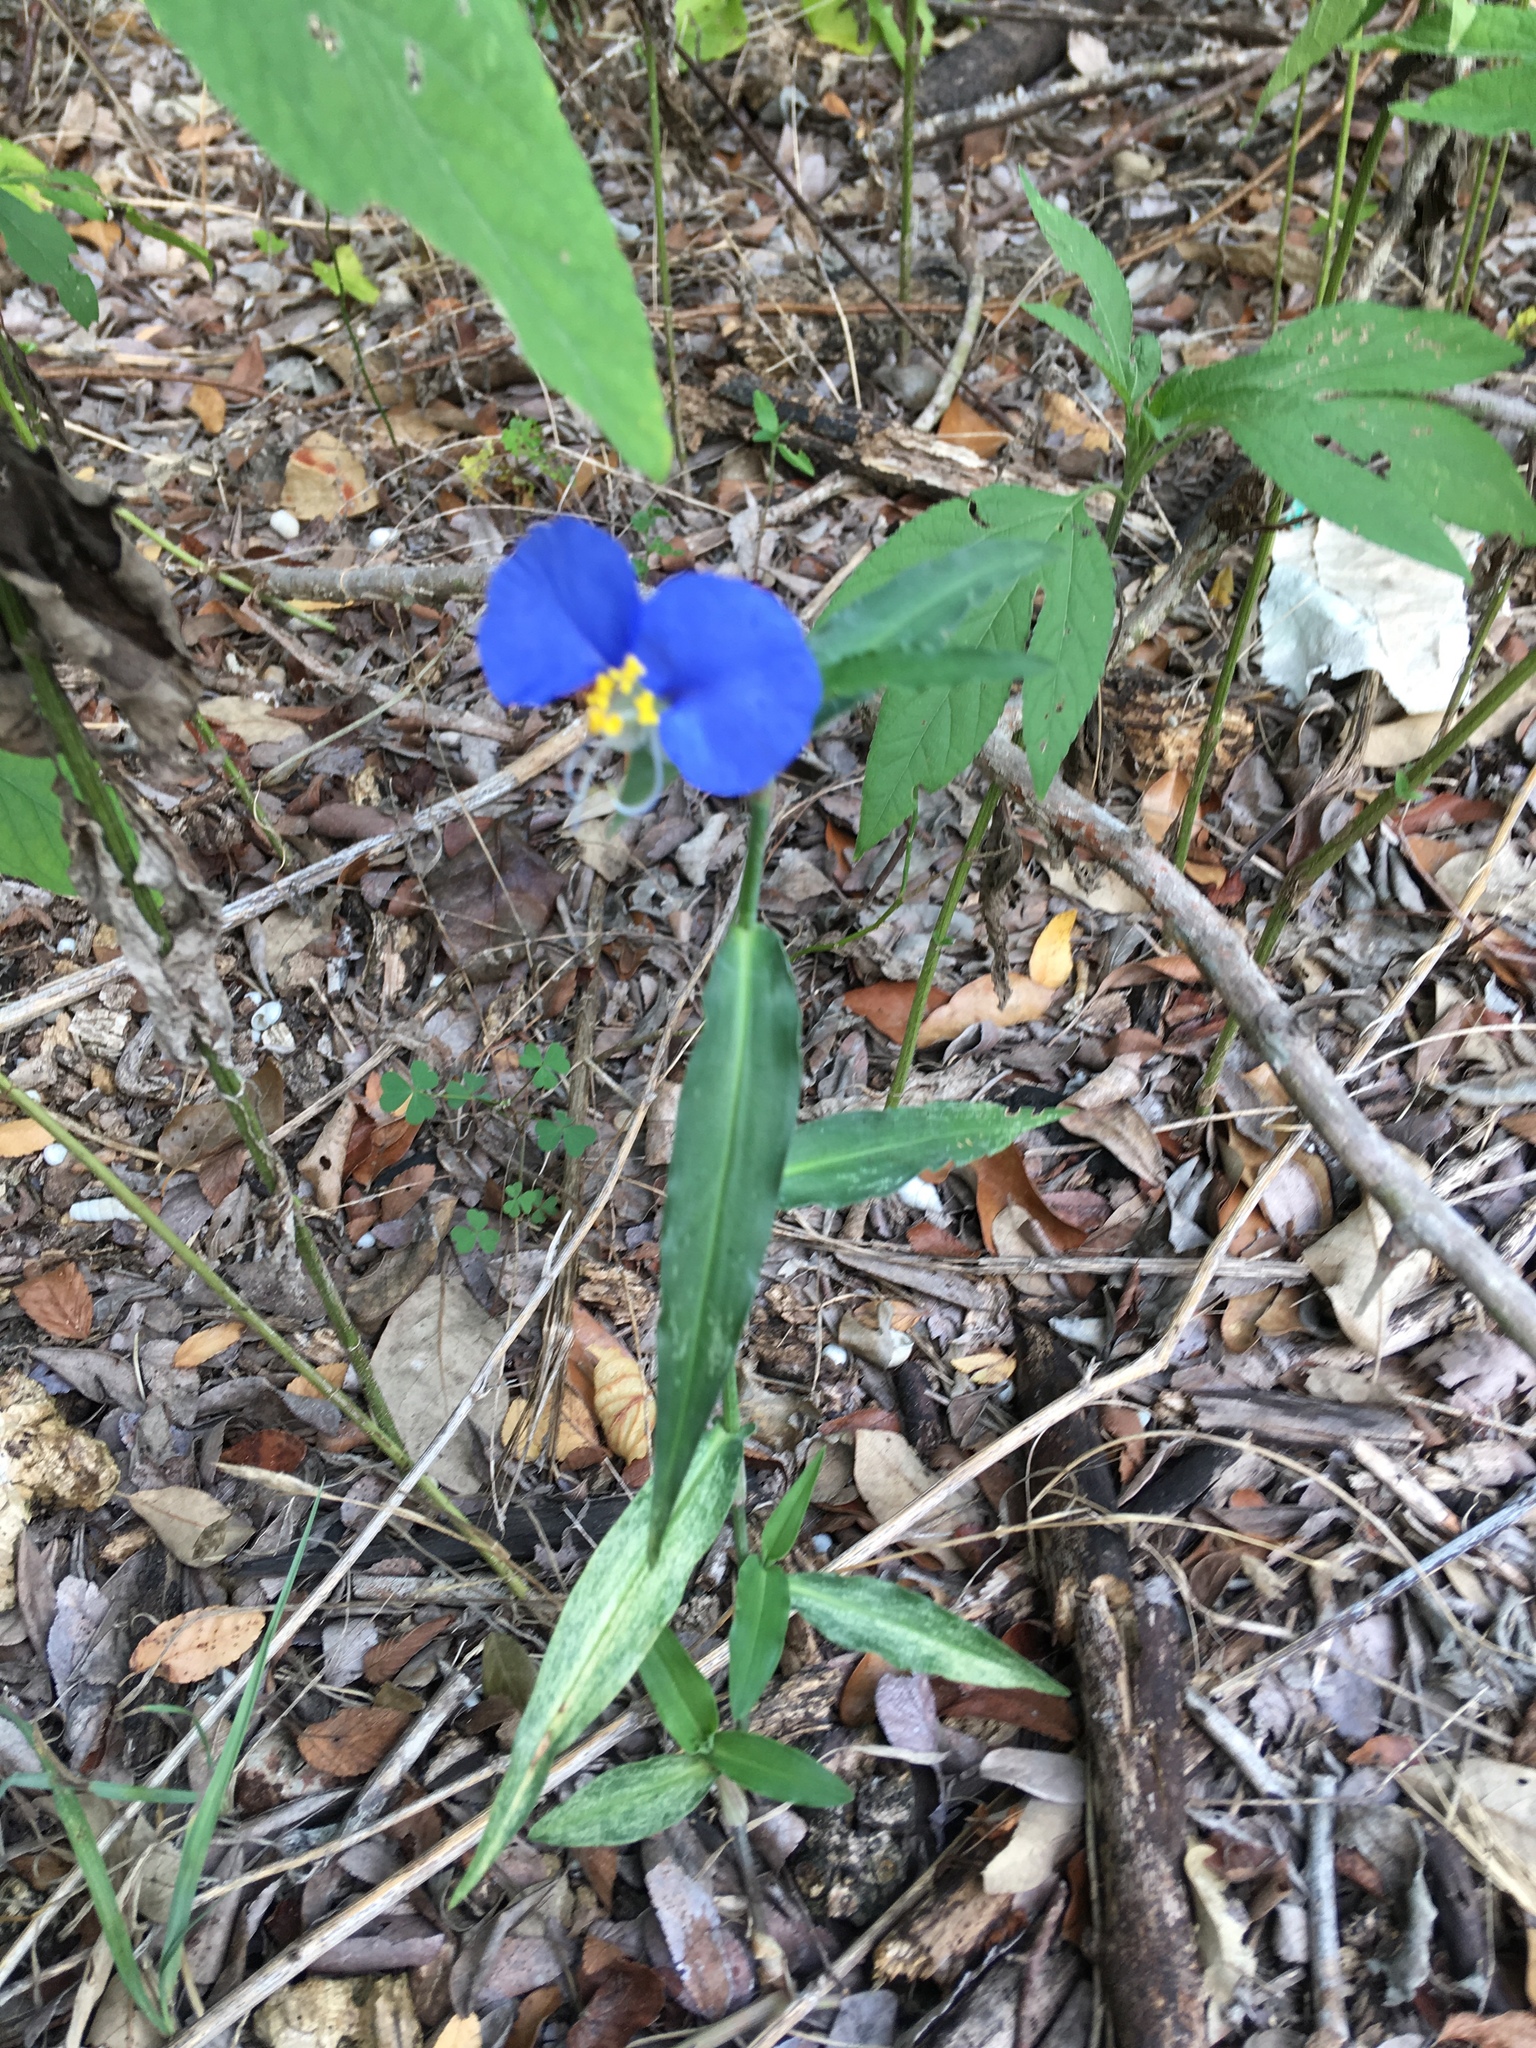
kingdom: Plantae
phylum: Tracheophyta
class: Liliopsida
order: Commelinales
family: Commelinaceae
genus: Commelina
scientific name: Commelina erecta
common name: Blousel blommetjie
